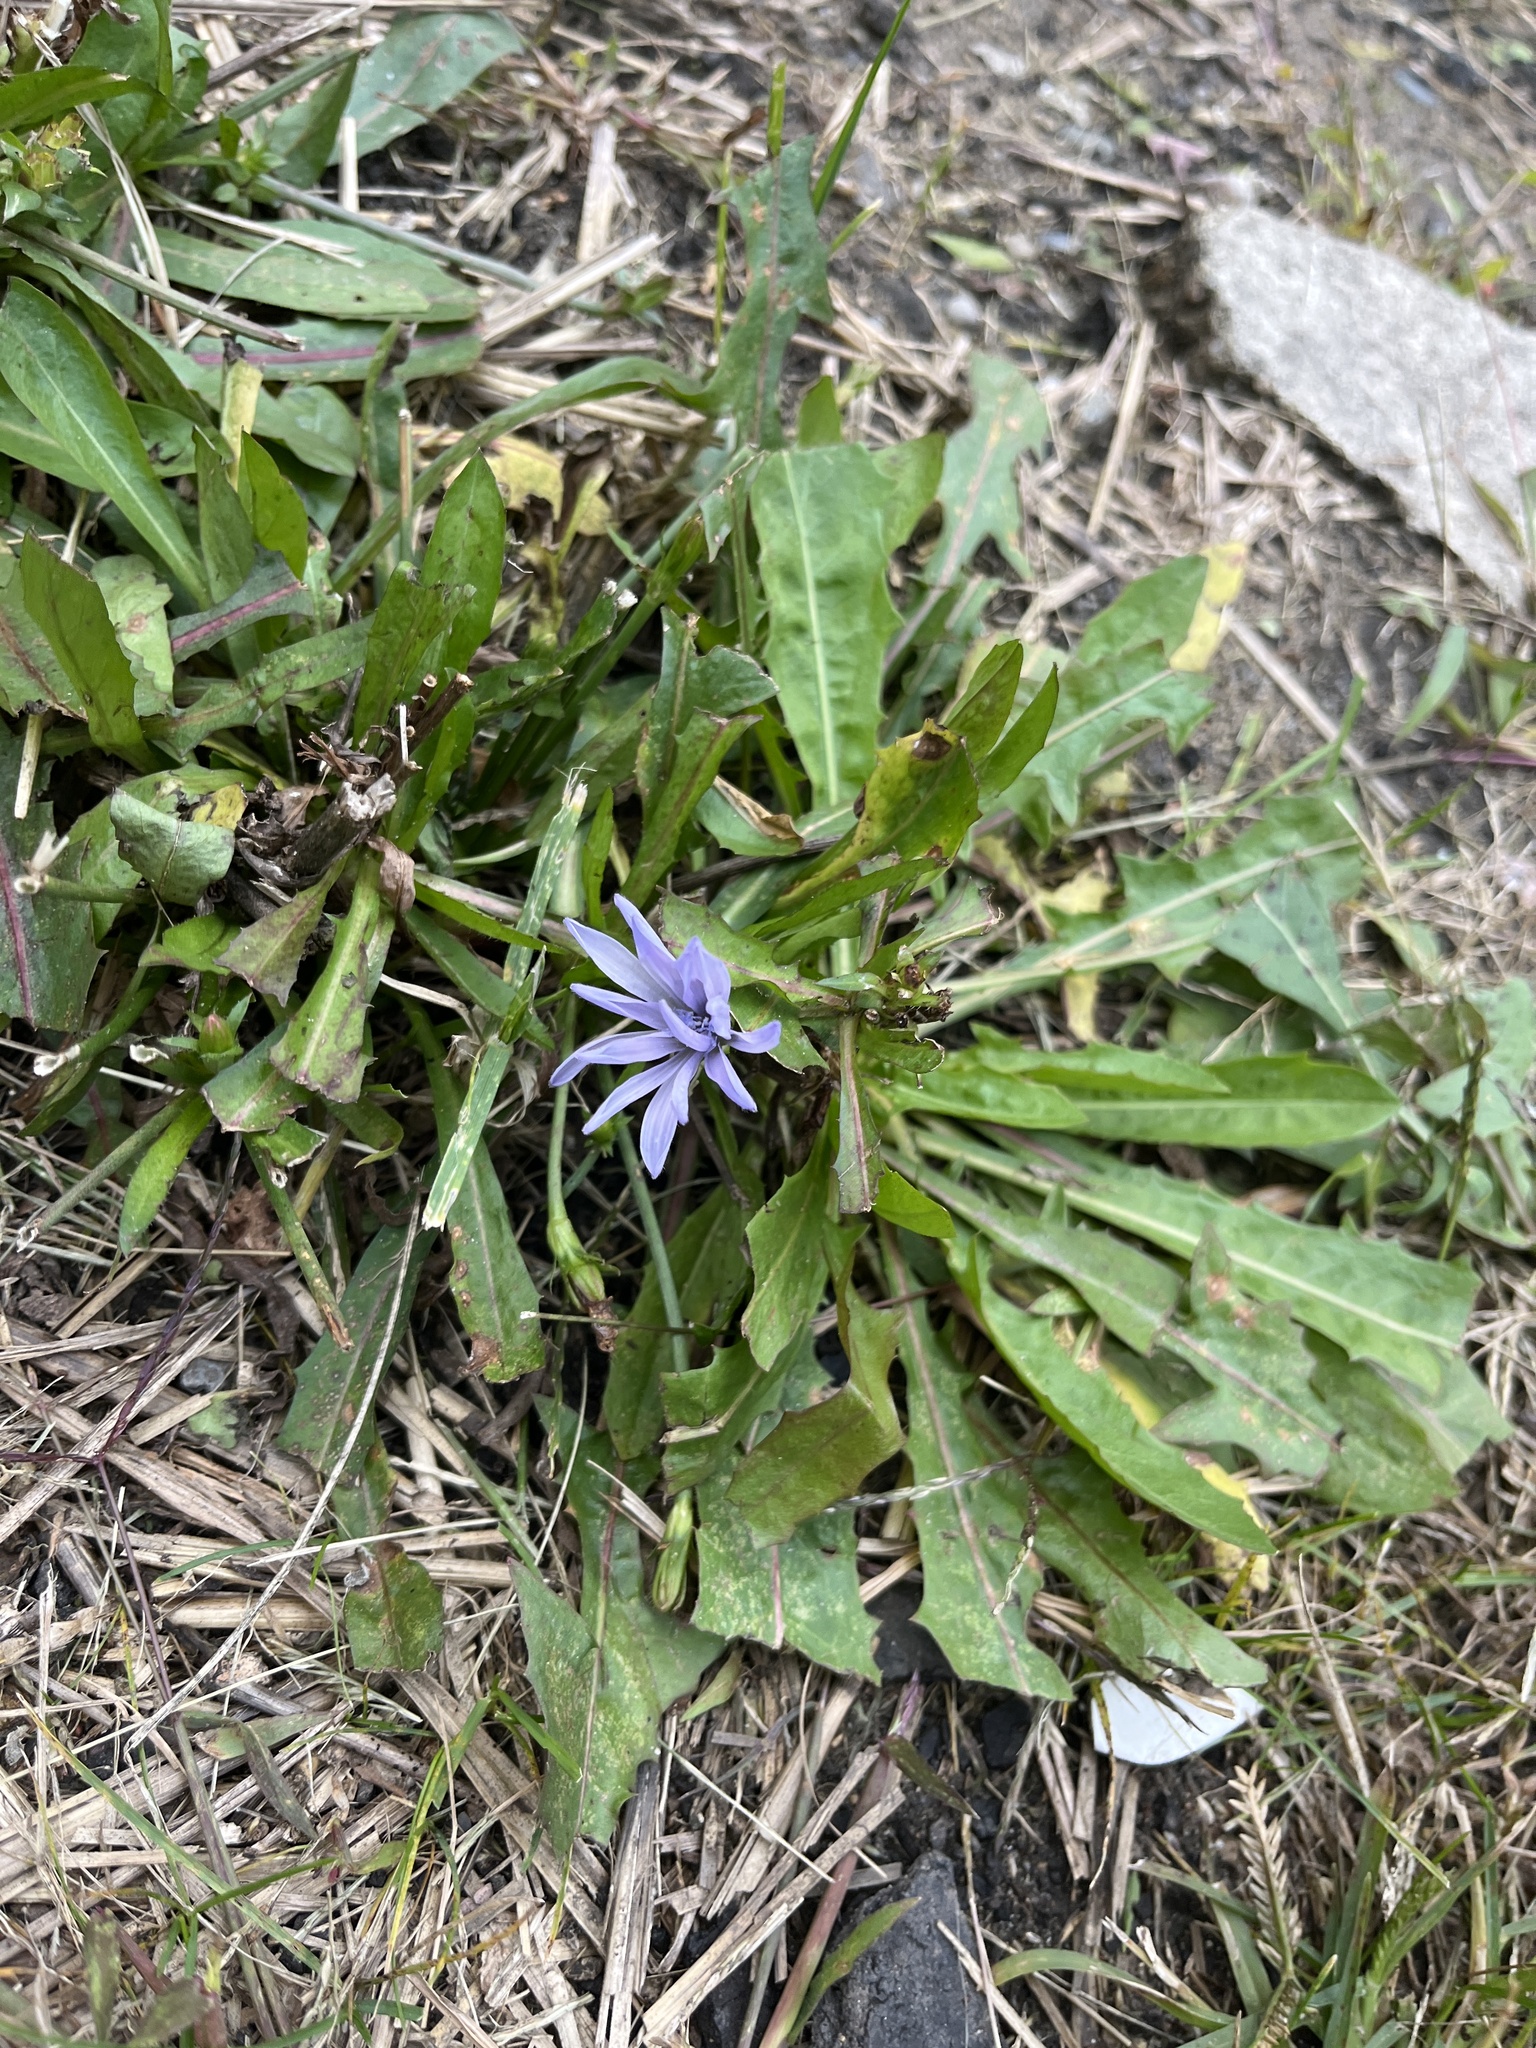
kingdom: Plantae
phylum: Tracheophyta
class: Magnoliopsida
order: Asterales
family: Asteraceae
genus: Cichorium
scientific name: Cichorium intybus
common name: Chicory
